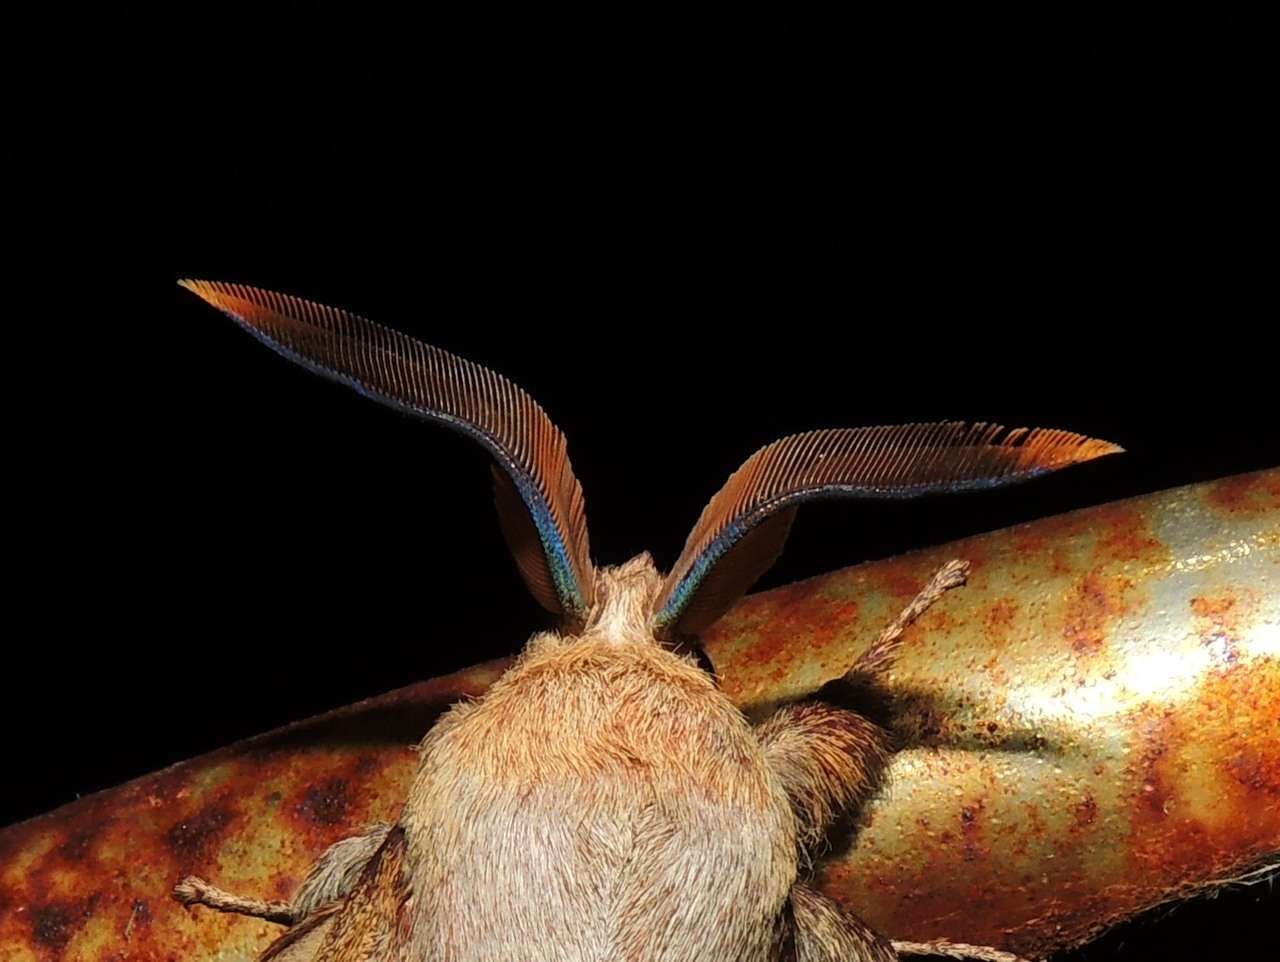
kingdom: Animalia
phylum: Arthropoda
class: Insecta
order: Lepidoptera
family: Lasiocampidae
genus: Entometa
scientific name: Entometa fervens
